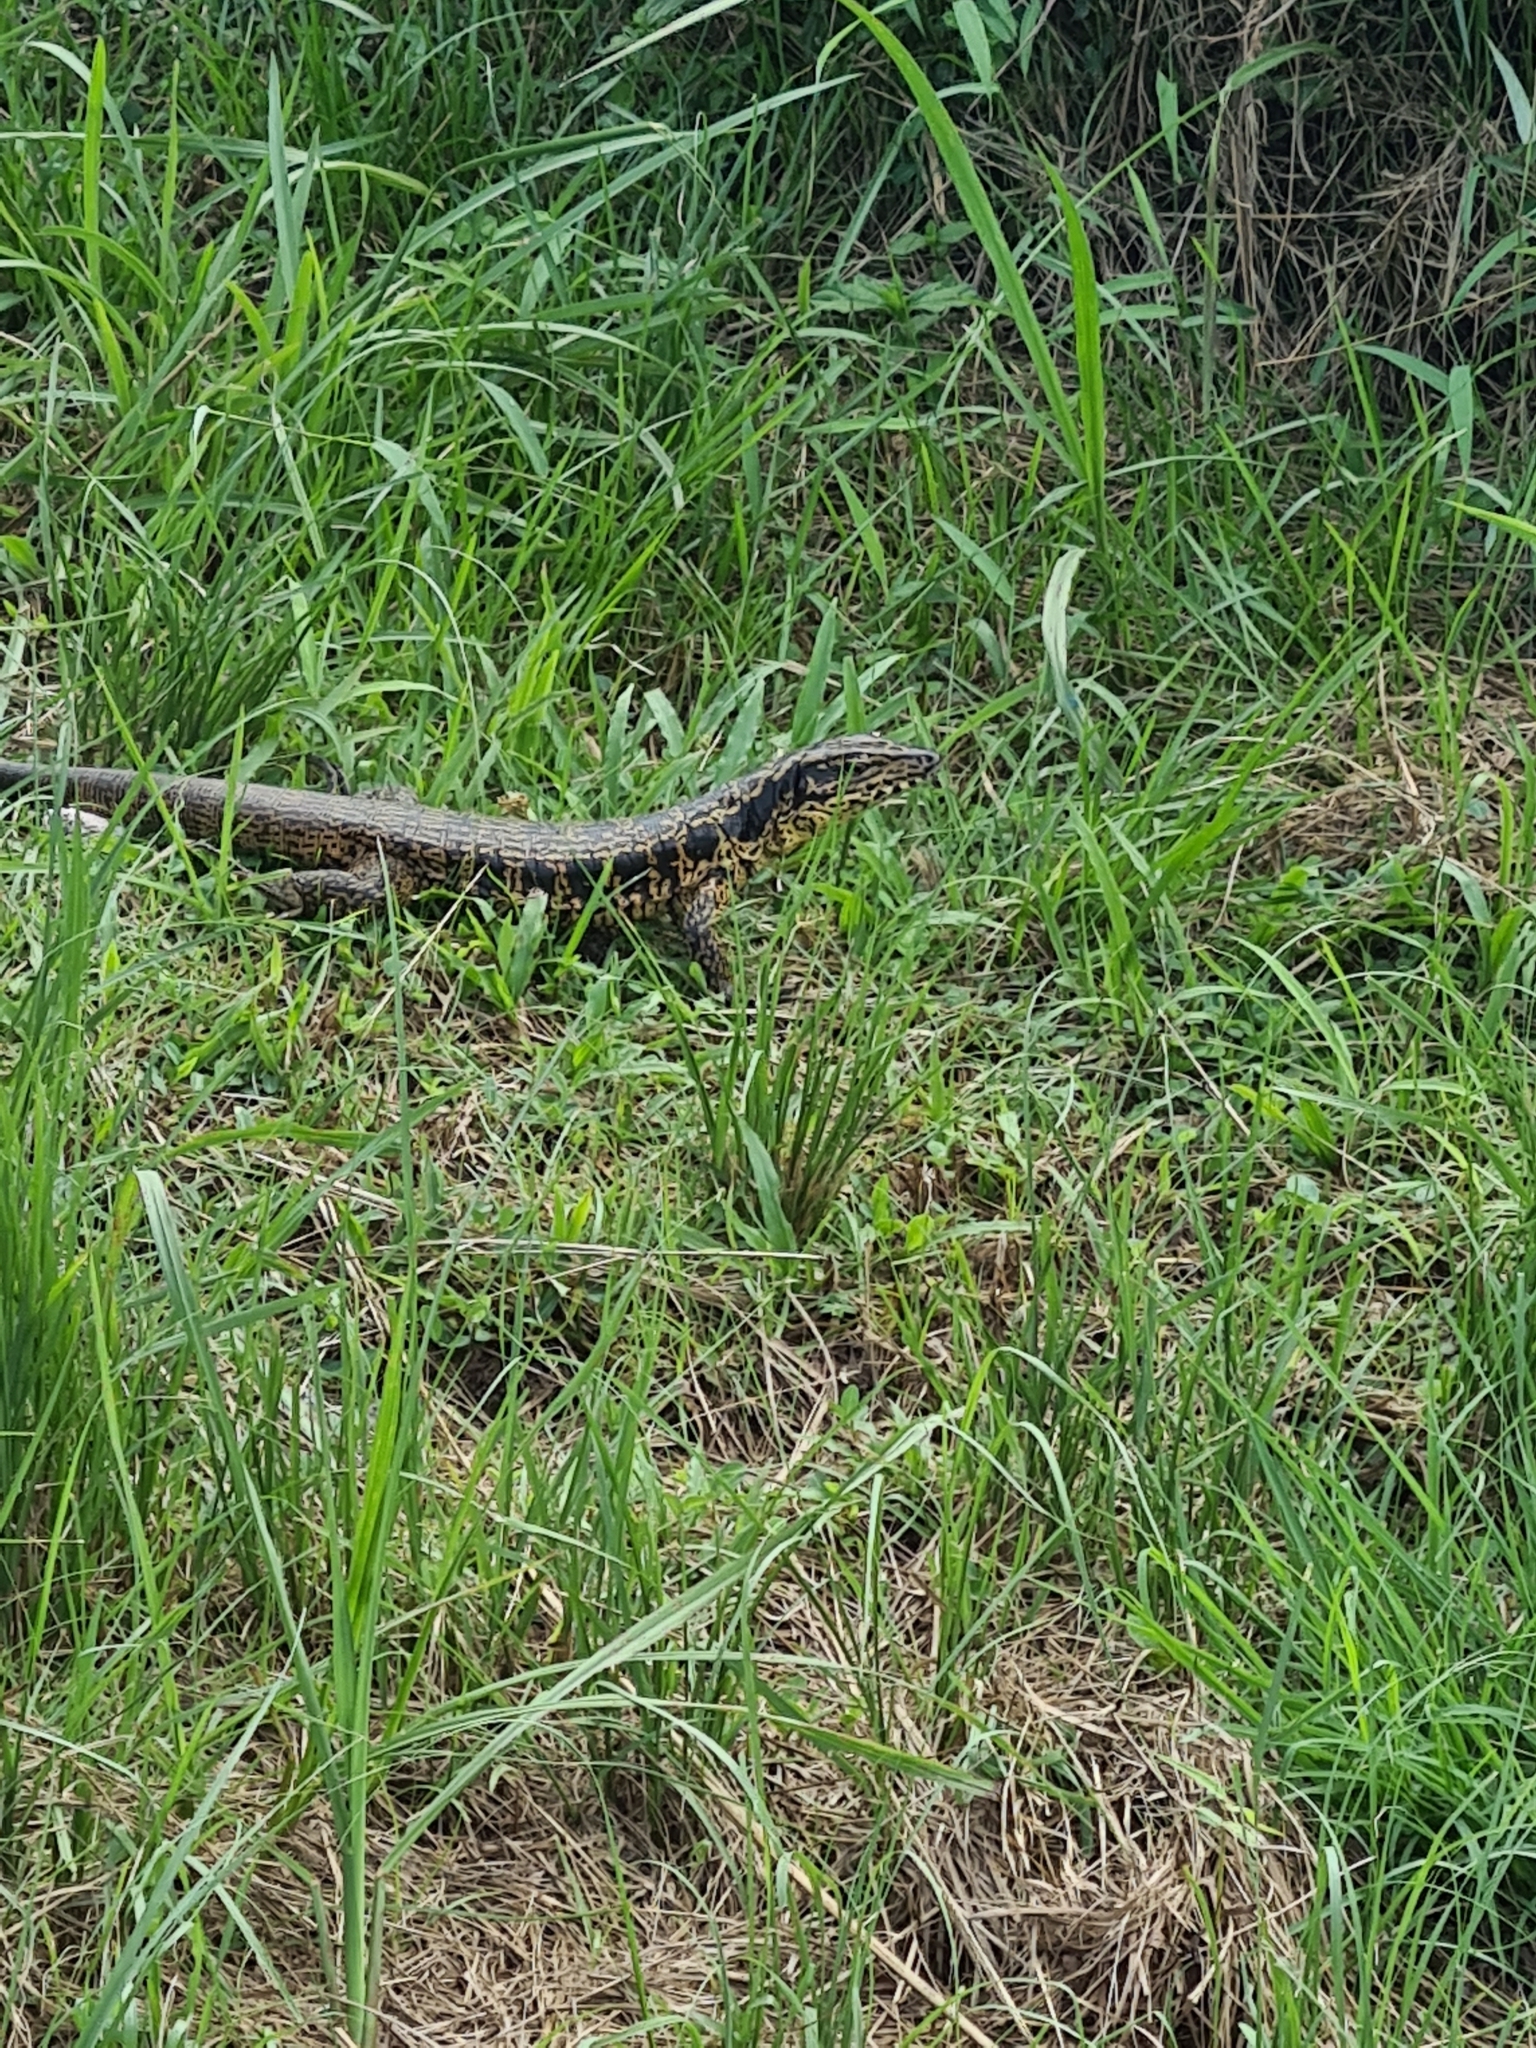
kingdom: Animalia
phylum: Chordata
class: Squamata
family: Teiidae
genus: Tupinambis
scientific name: Tupinambis teguixin
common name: Black tegu
